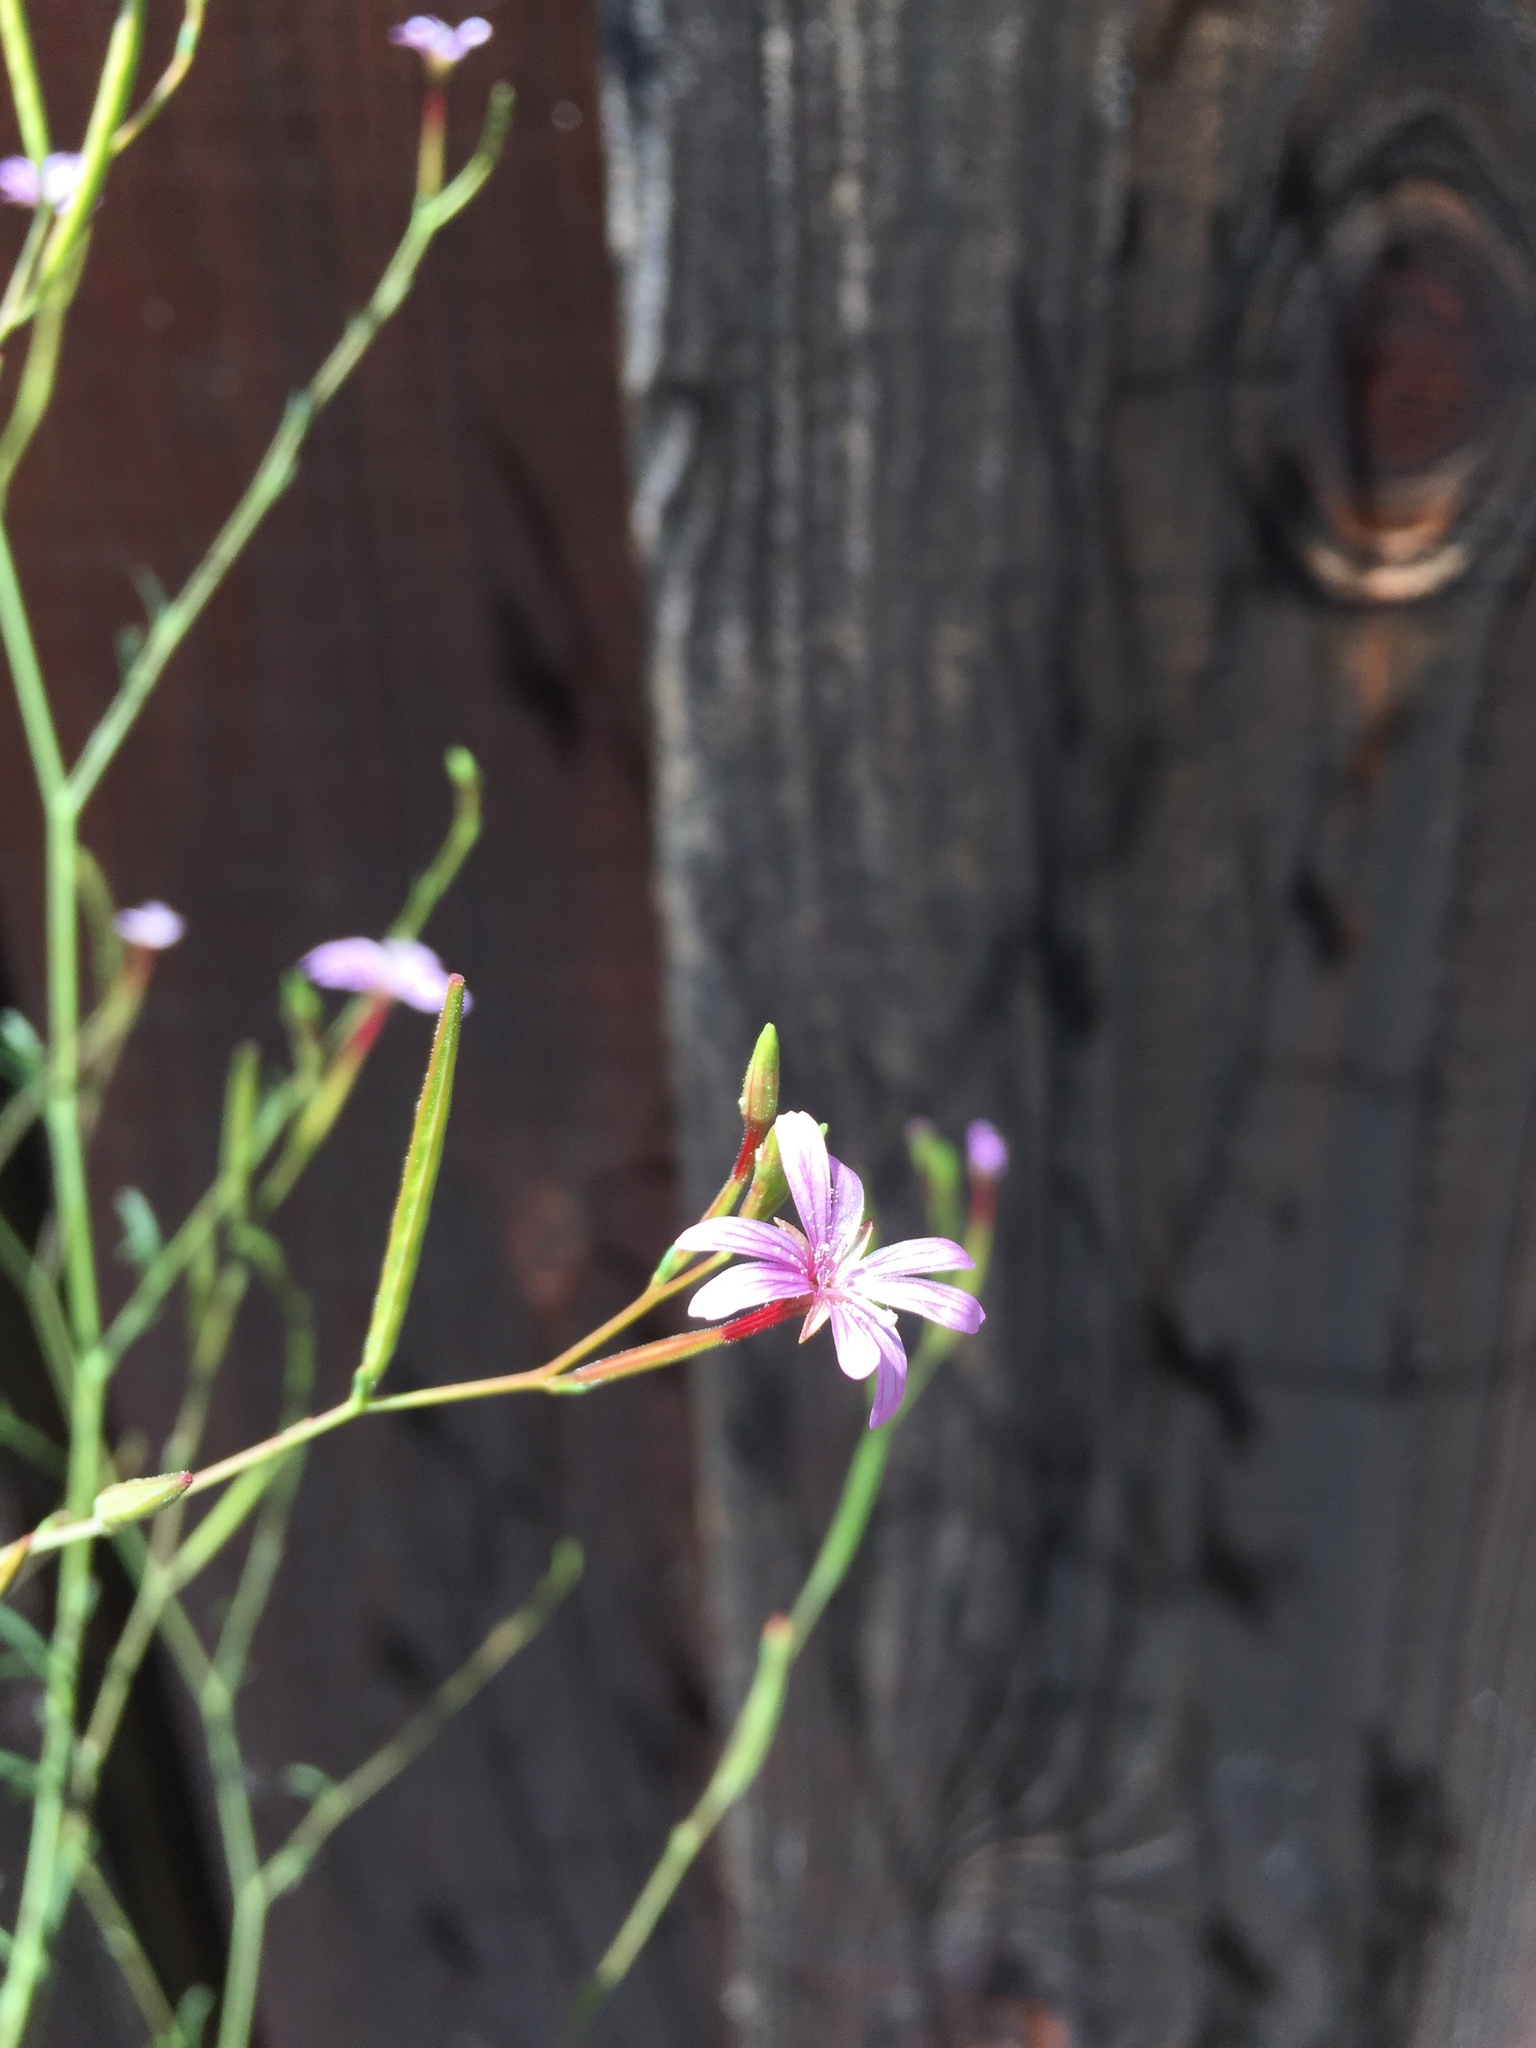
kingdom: Plantae
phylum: Tracheophyta
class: Magnoliopsida
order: Myrtales
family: Onagraceae
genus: Epilobium
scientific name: Epilobium brachycarpum
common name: Annual willowherb
